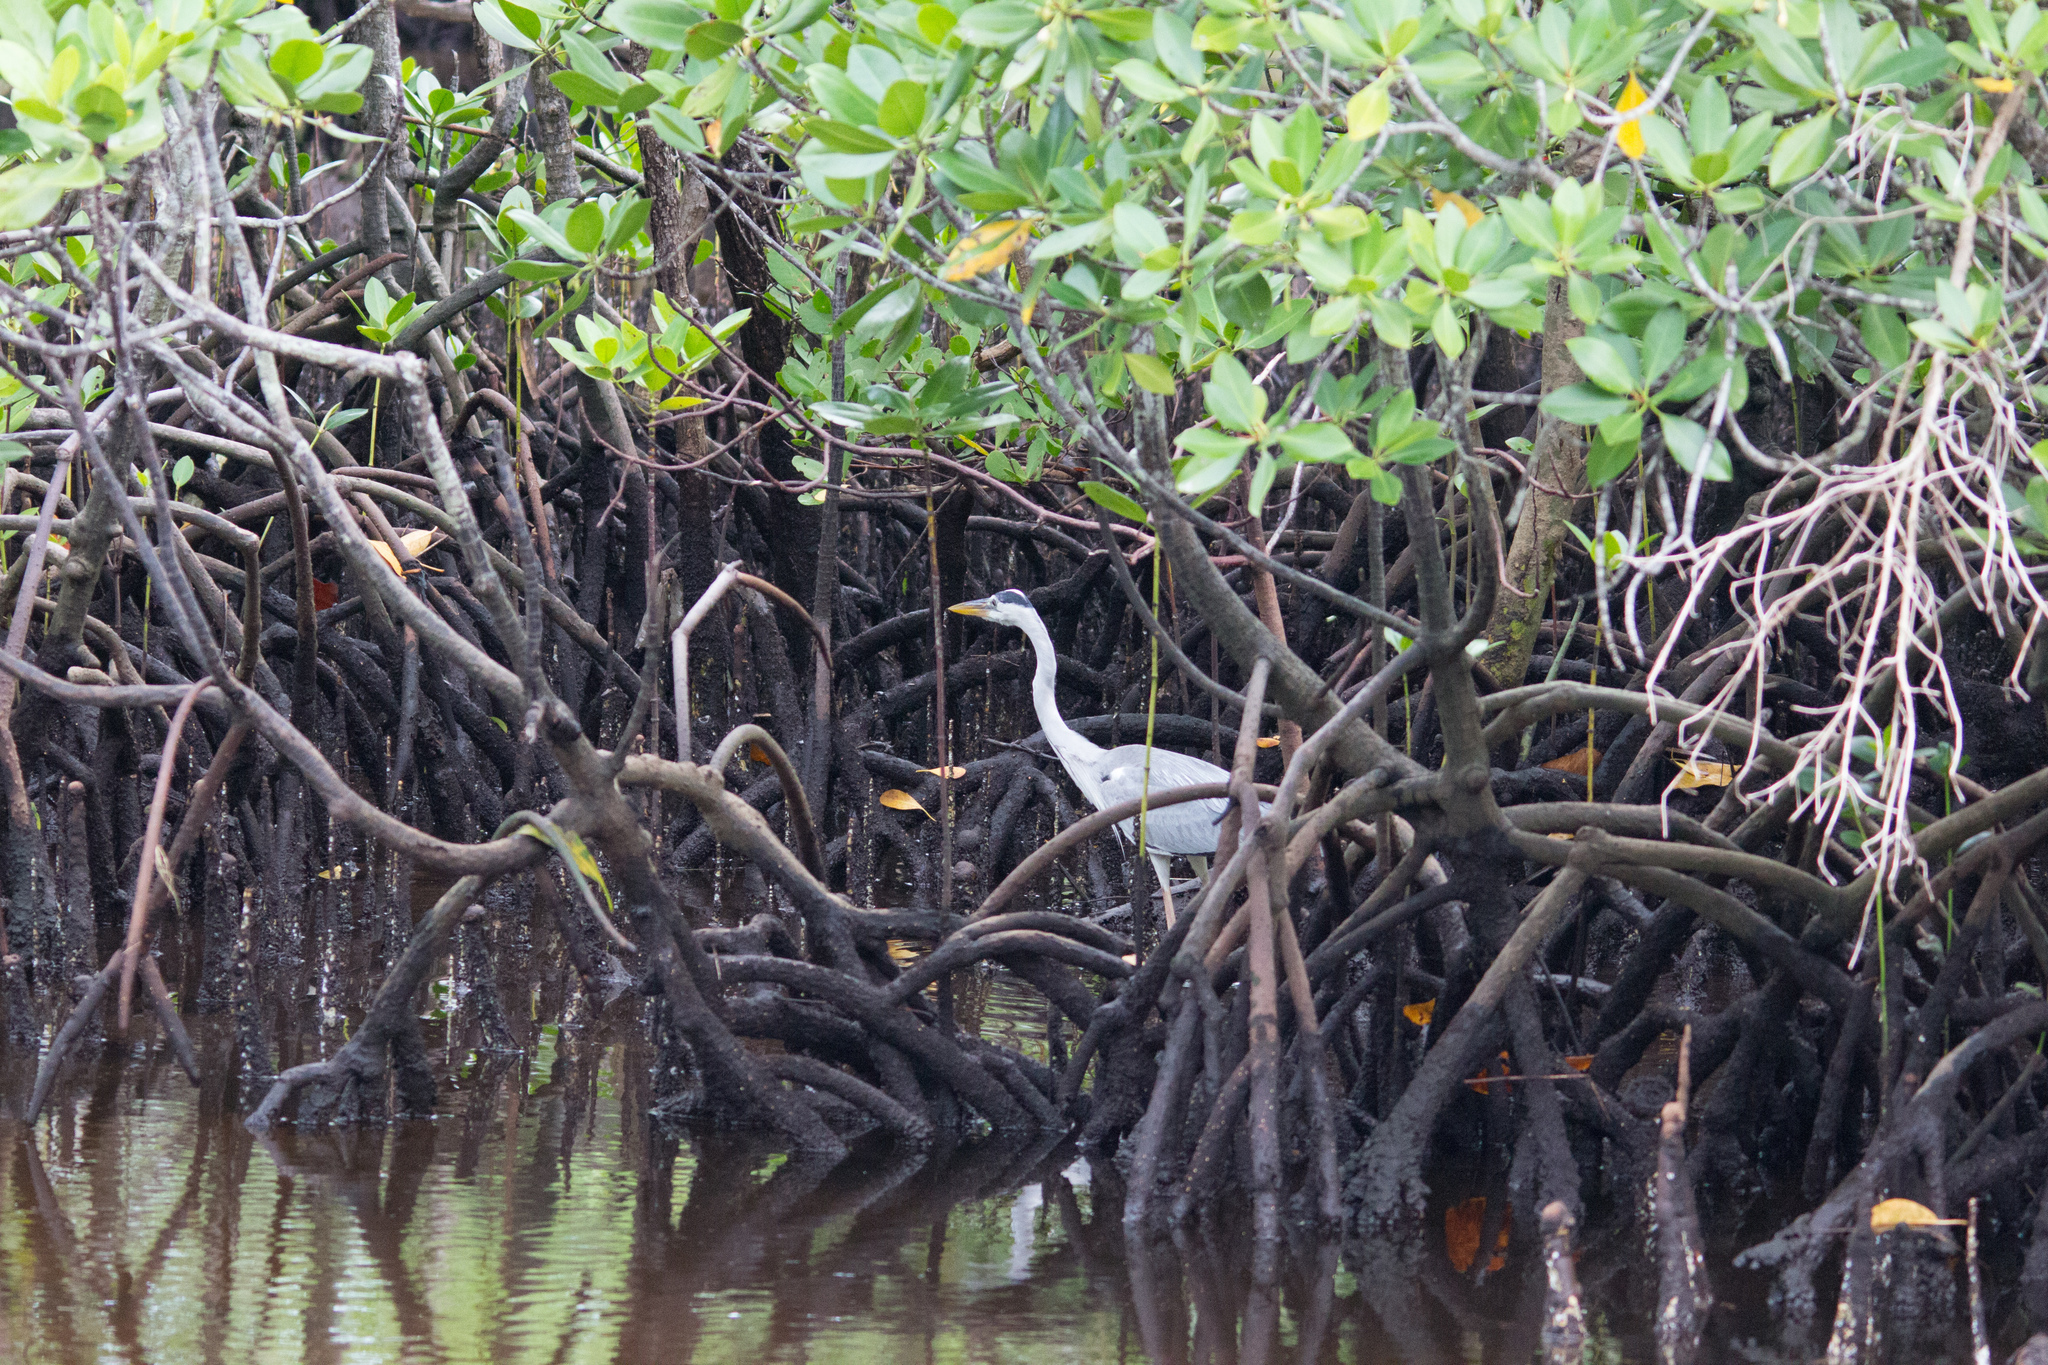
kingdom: Animalia
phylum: Chordata
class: Aves
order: Pelecaniformes
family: Ardeidae
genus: Ardea
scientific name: Ardea cinerea
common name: Grey heron
